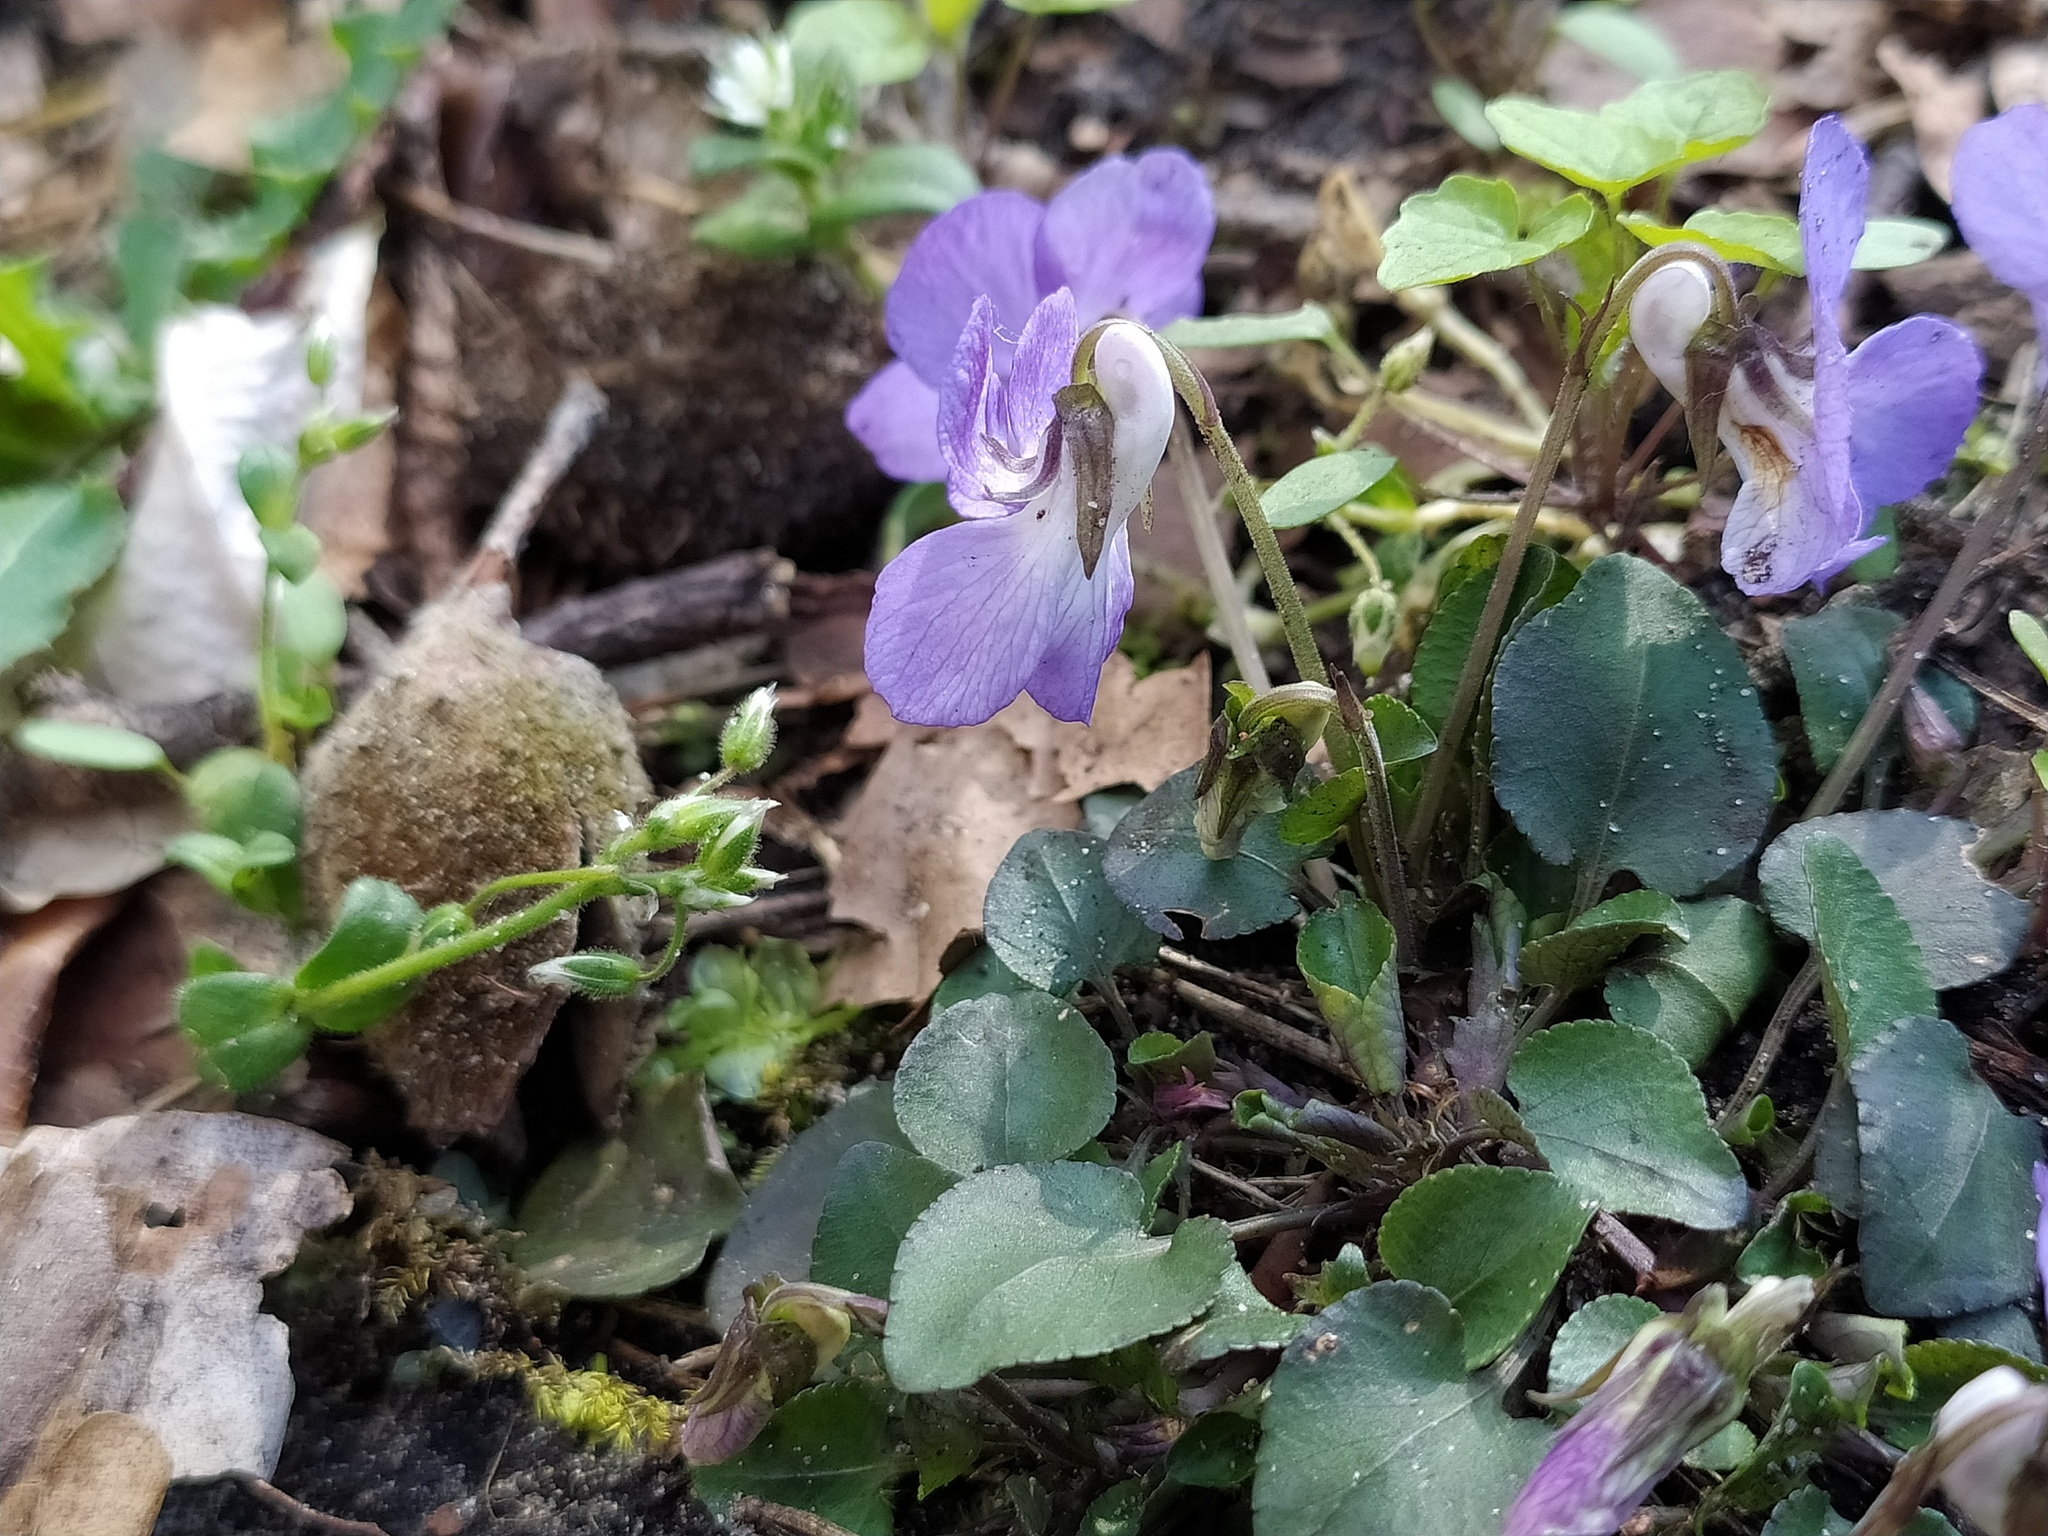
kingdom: Plantae
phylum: Tracheophyta
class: Magnoliopsida
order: Malpighiales
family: Violaceae
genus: Viola
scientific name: Viola rupestris
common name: Teesdale violet
